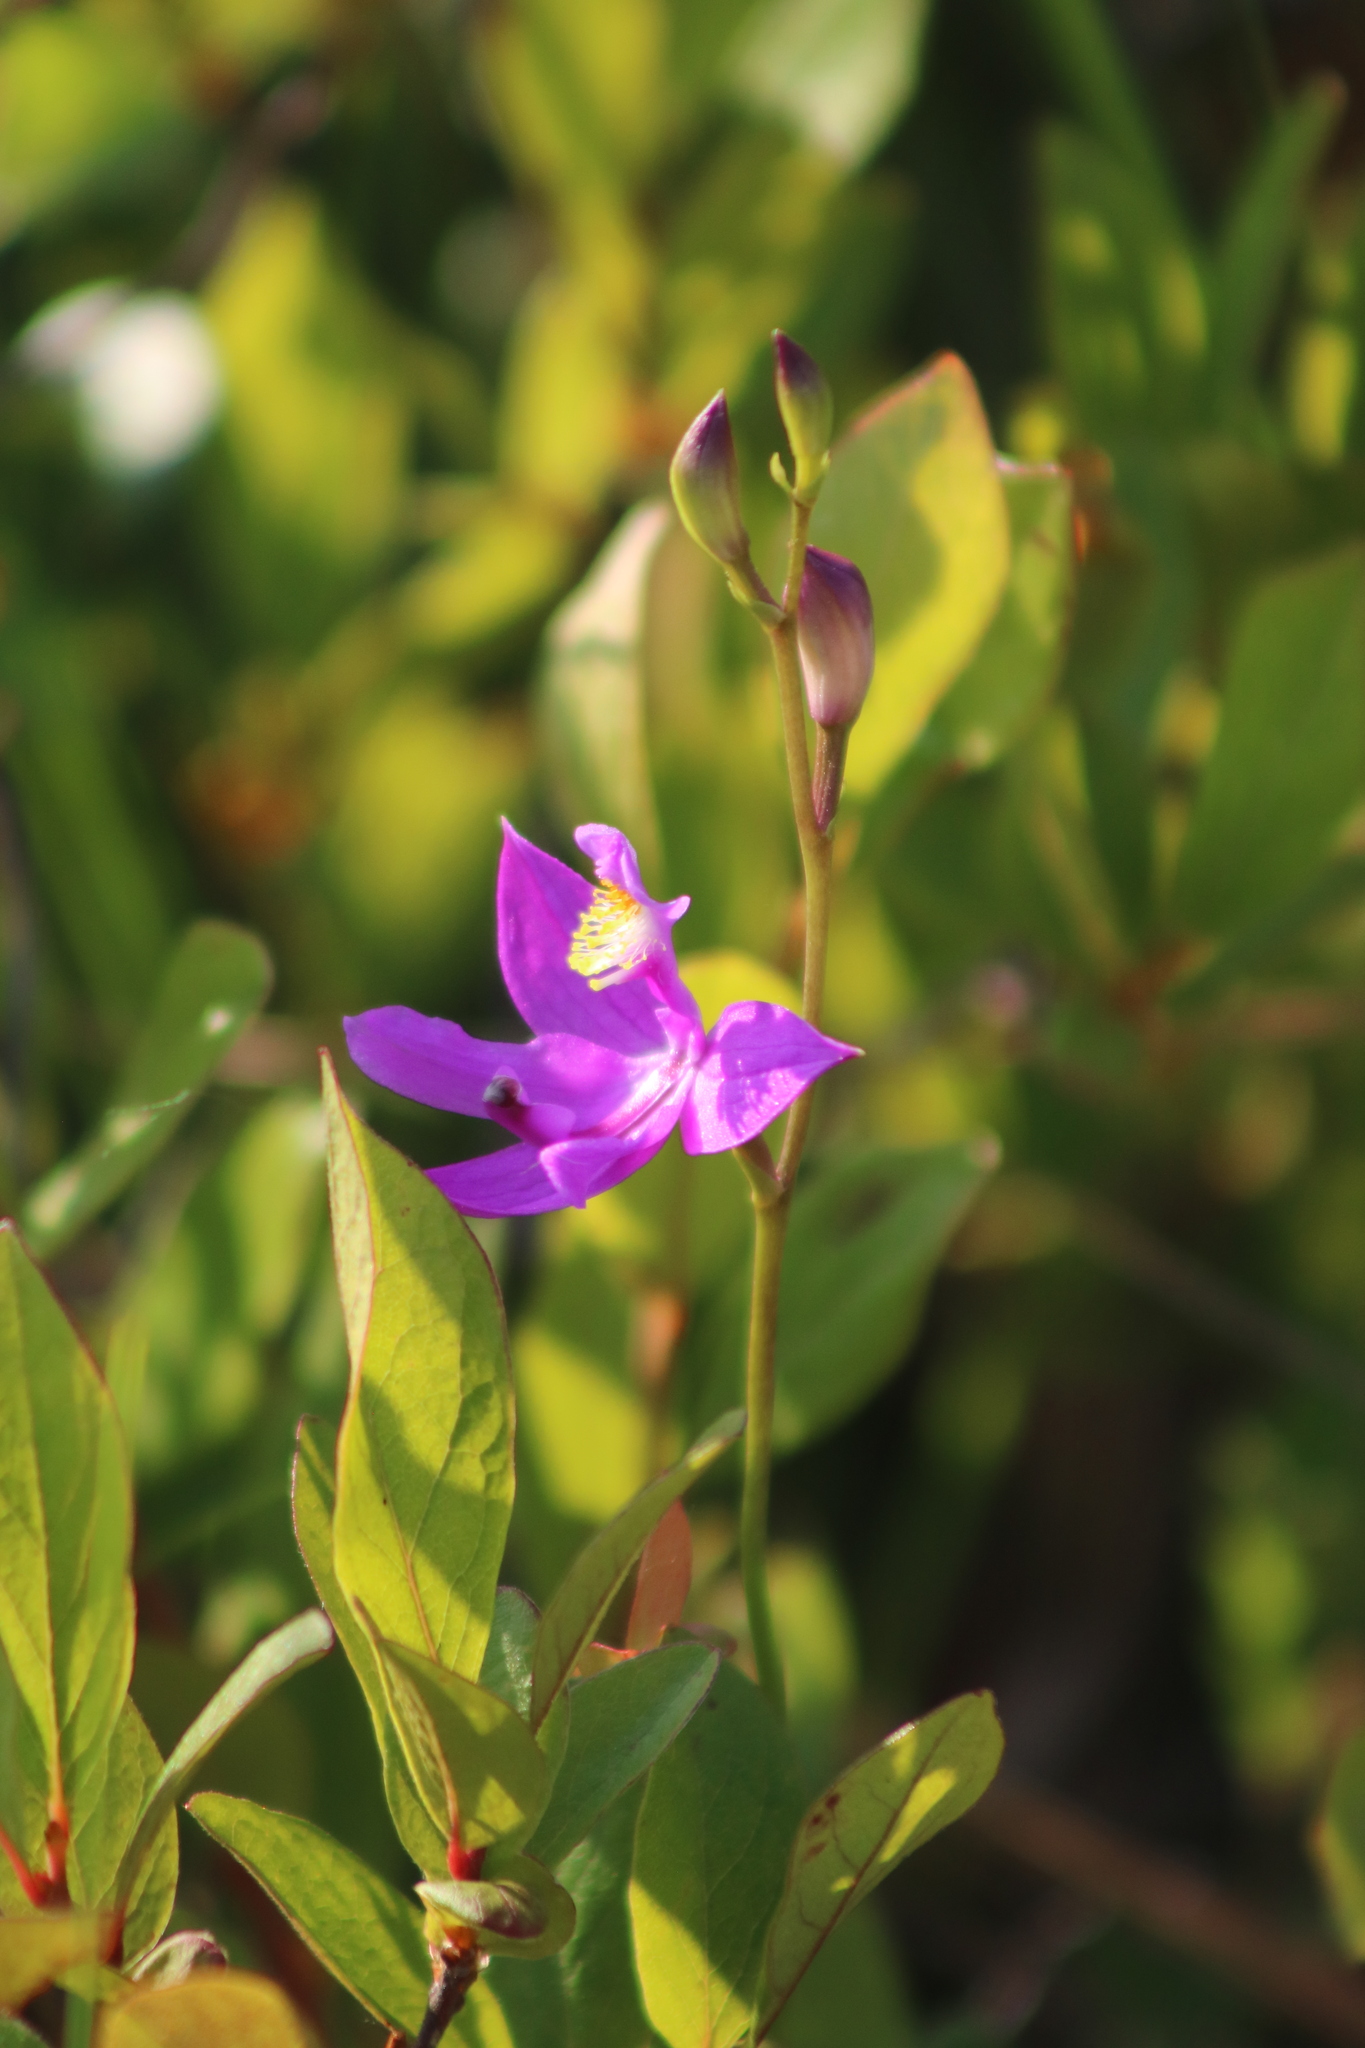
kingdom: Plantae
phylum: Tracheophyta
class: Liliopsida
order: Asparagales
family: Orchidaceae
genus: Calopogon
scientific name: Calopogon tuberosus
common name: Grass-pink
